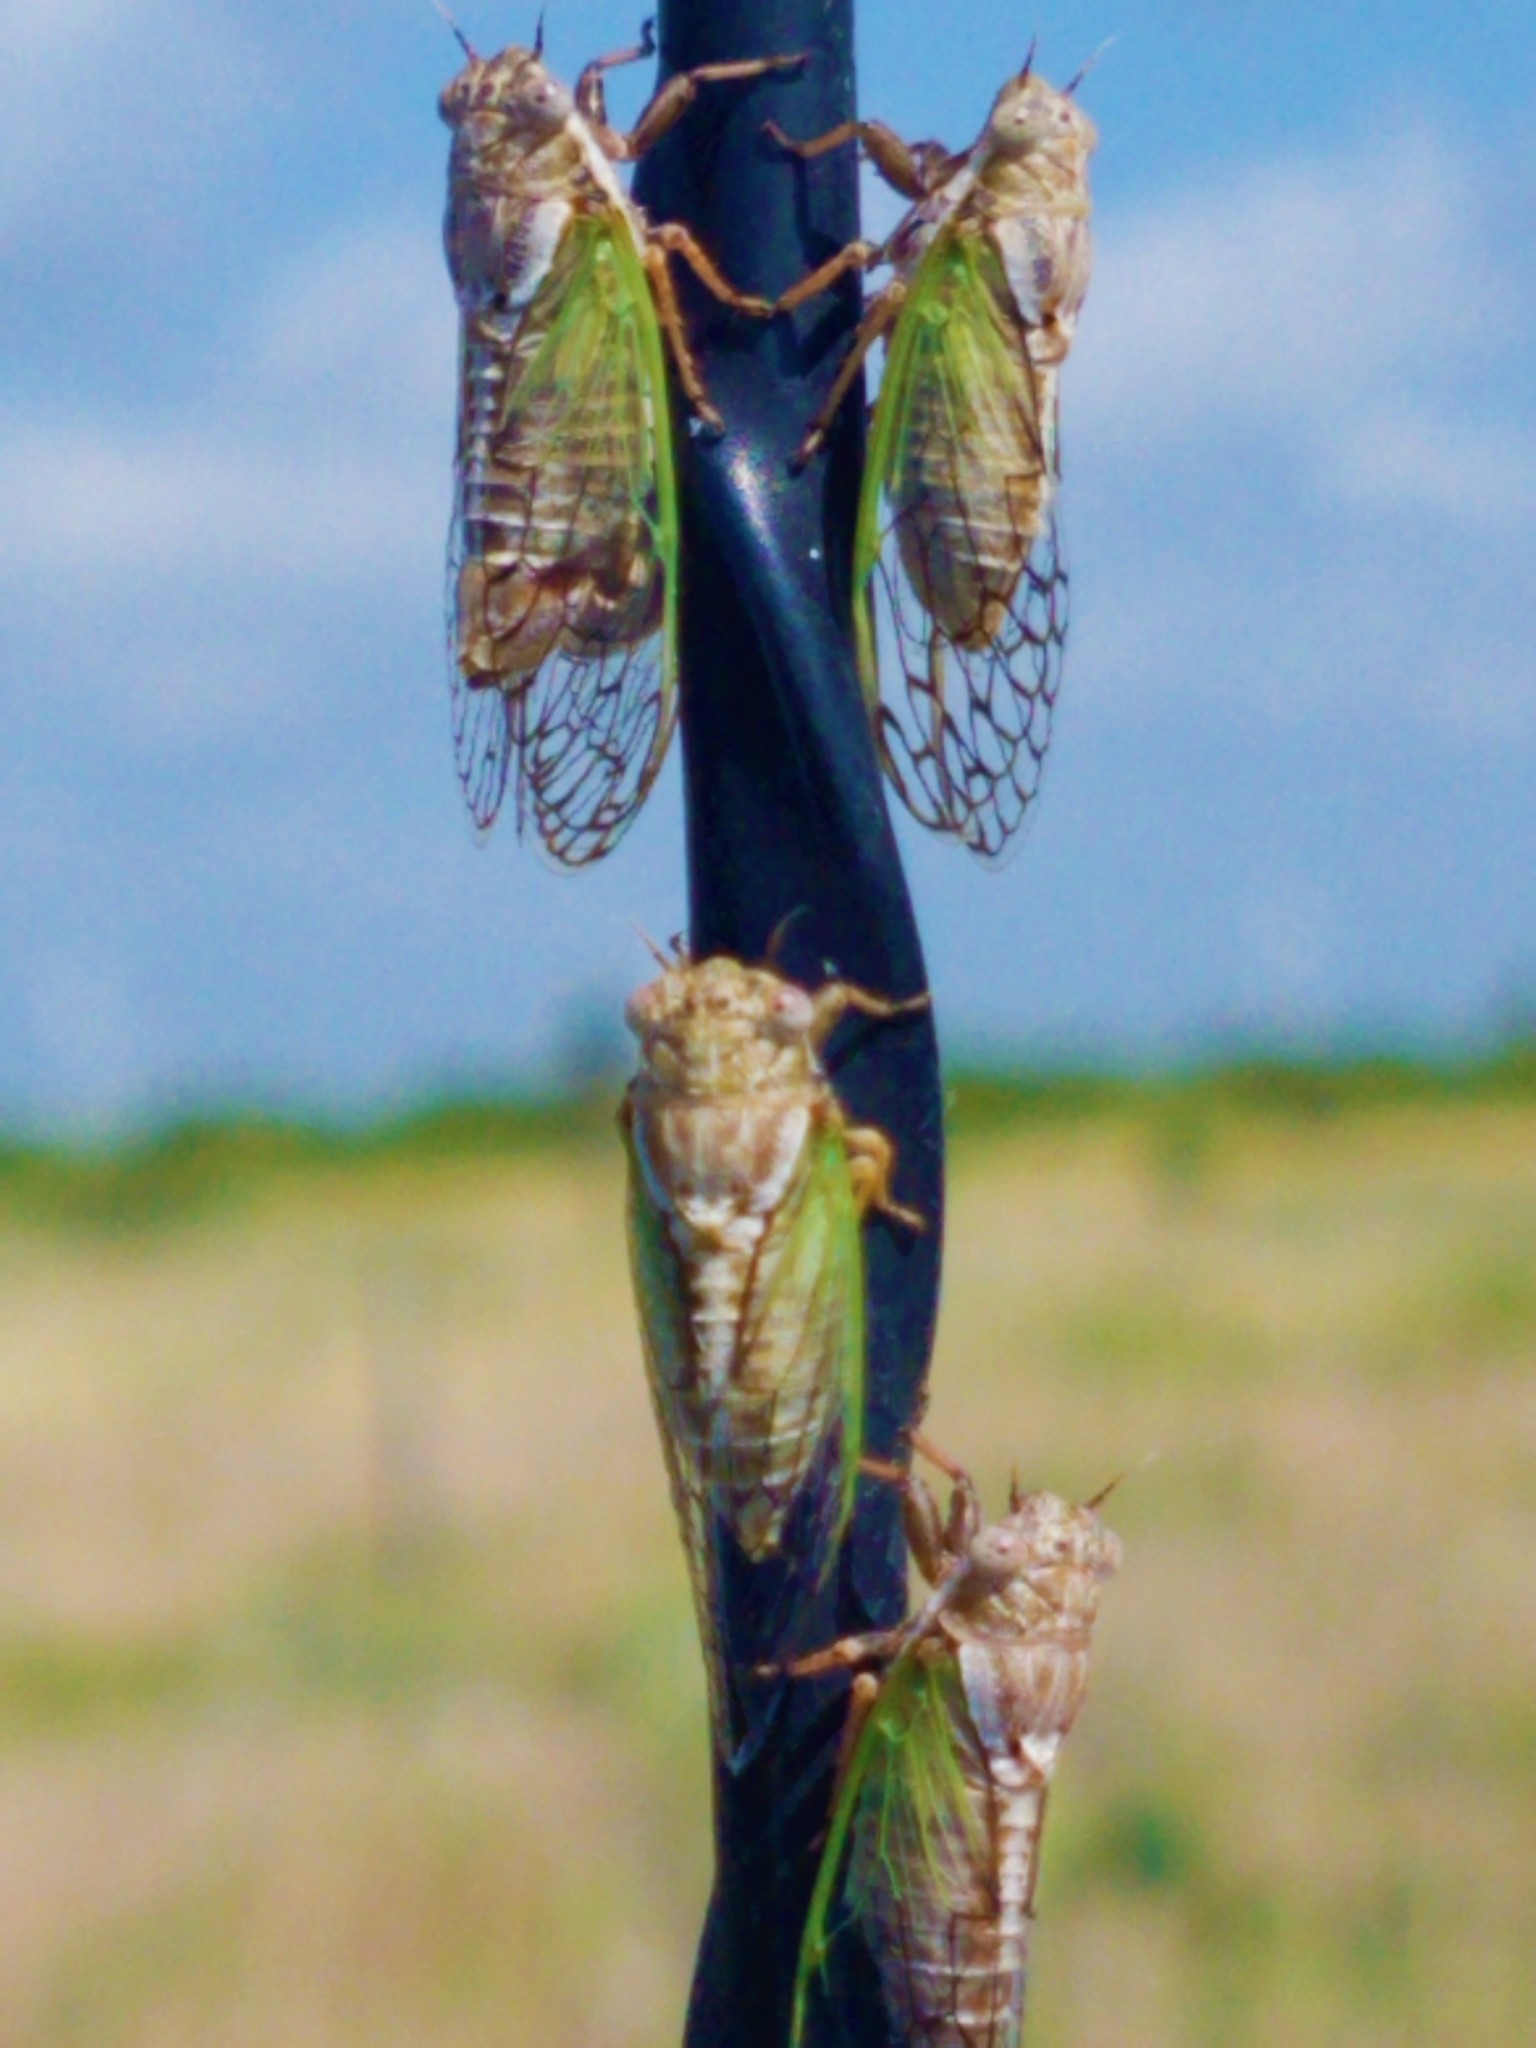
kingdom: Animalia
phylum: Arthropoda
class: Insecta
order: Hemiptera
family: Cicadidae
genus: Beameria
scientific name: Beameria venosa
